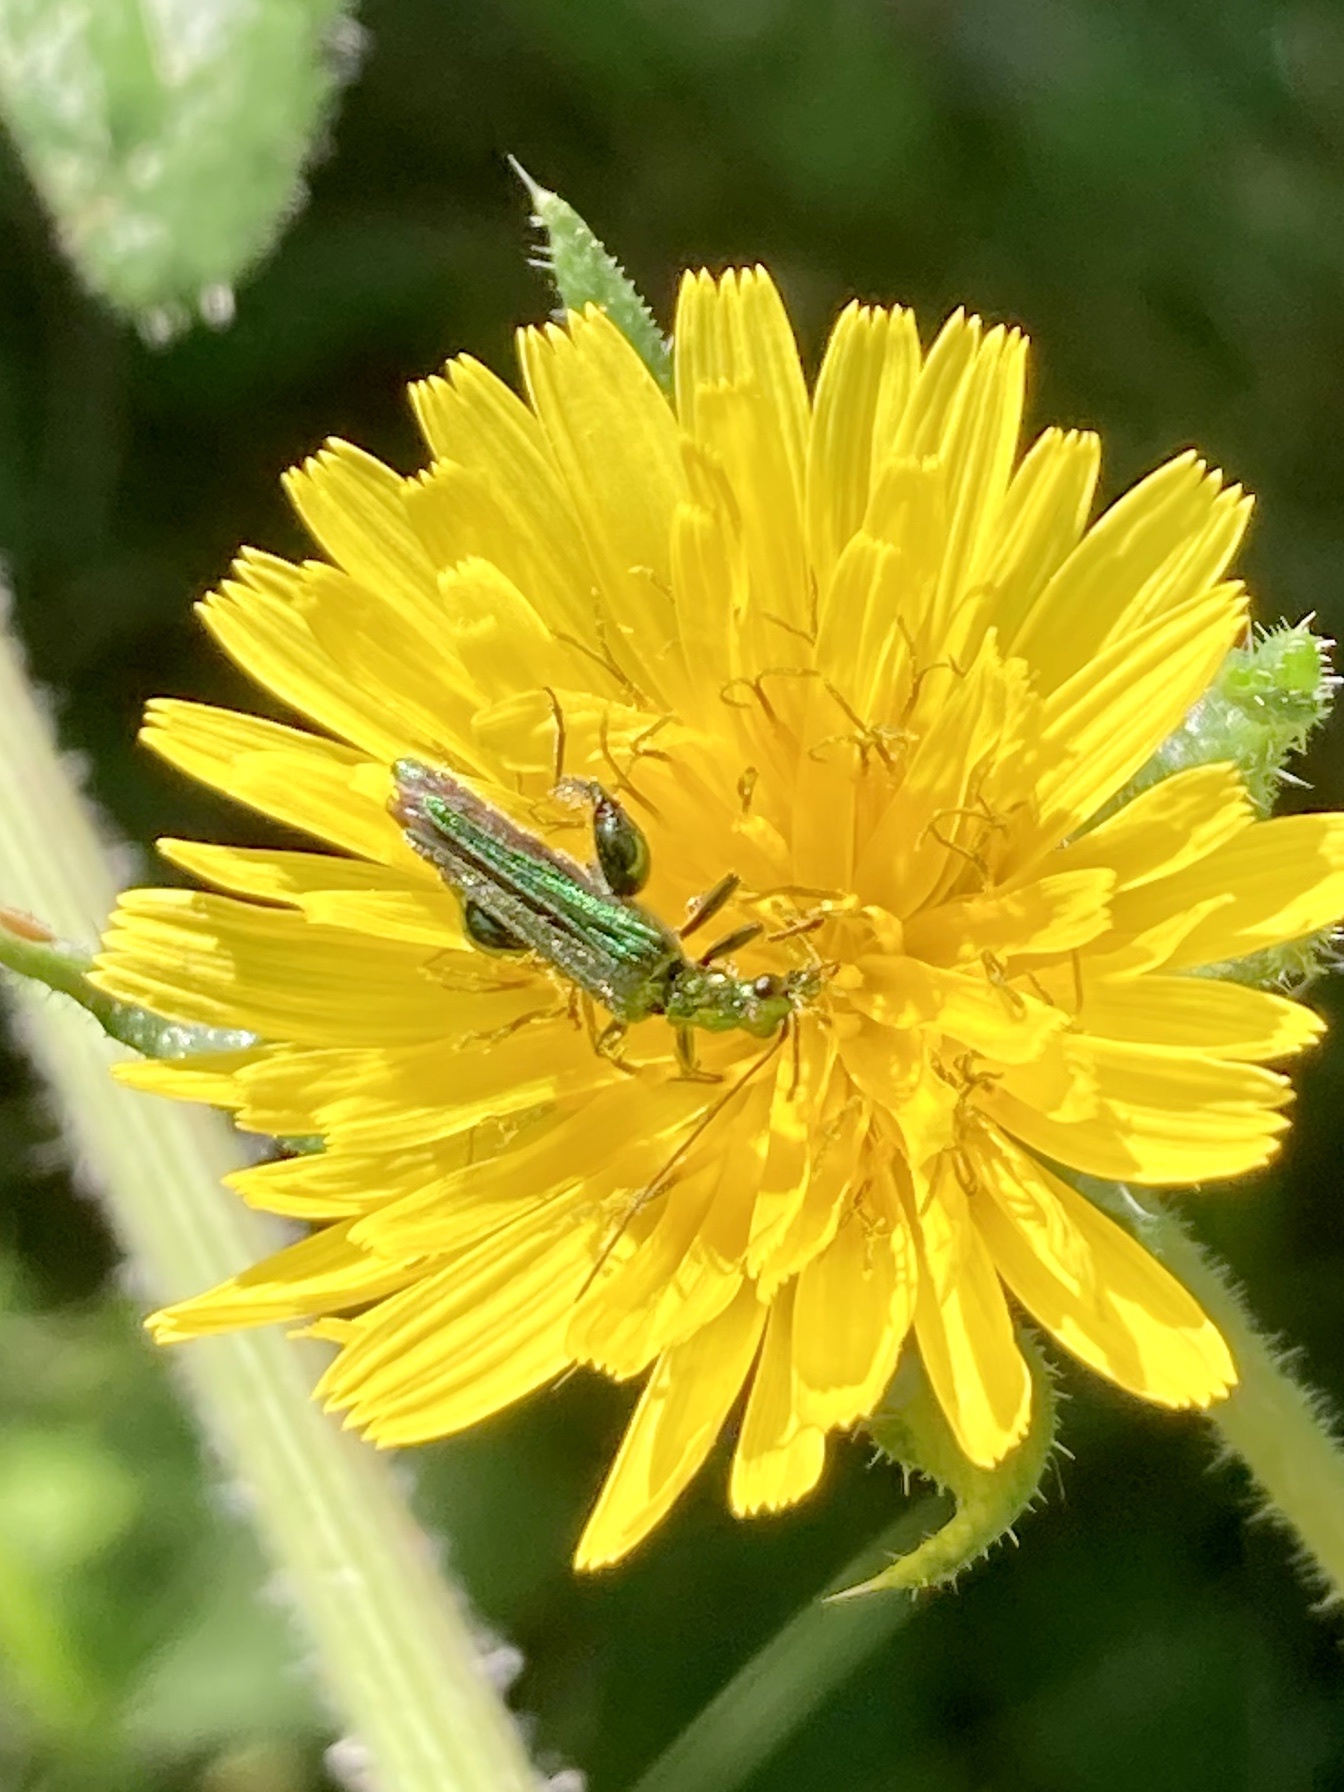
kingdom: Animalia
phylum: Arthropoda
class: Insecta
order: Coleoptera
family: Oedemeridae
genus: Oedemera
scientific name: Oedemera nobilis
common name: Swollen-thighed beetle
